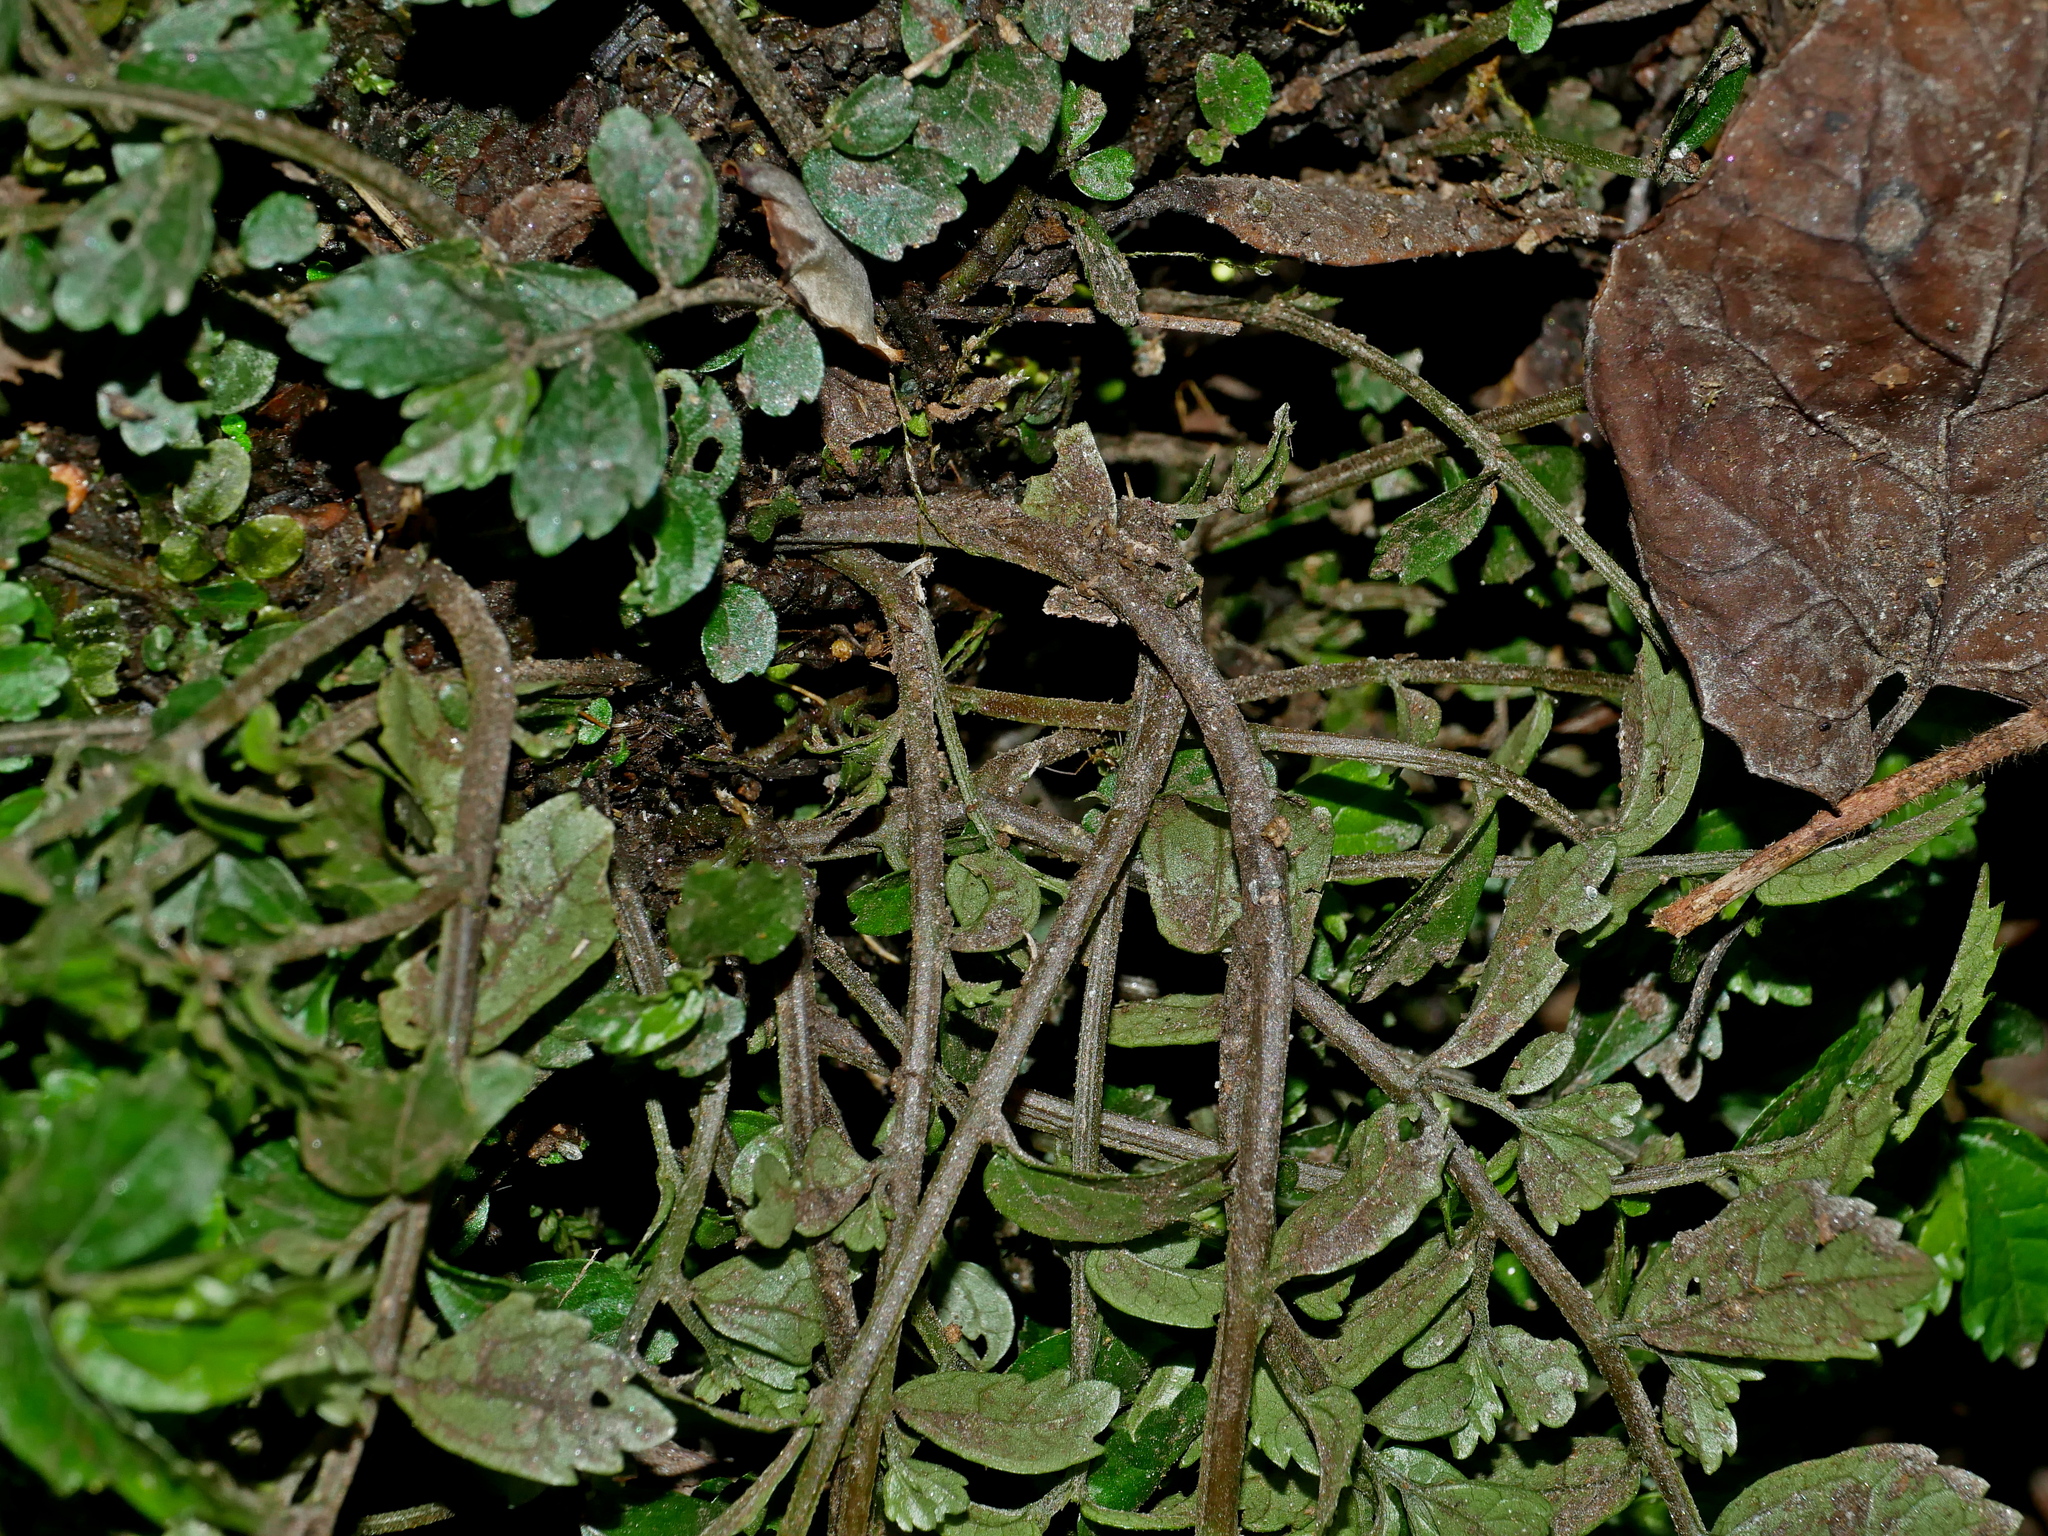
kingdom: Plantae
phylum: Tracheophyta
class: Magnoliopsida
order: Rosales
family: Urticaceae
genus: Elatostema
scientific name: Elatostema microcephalanthum
